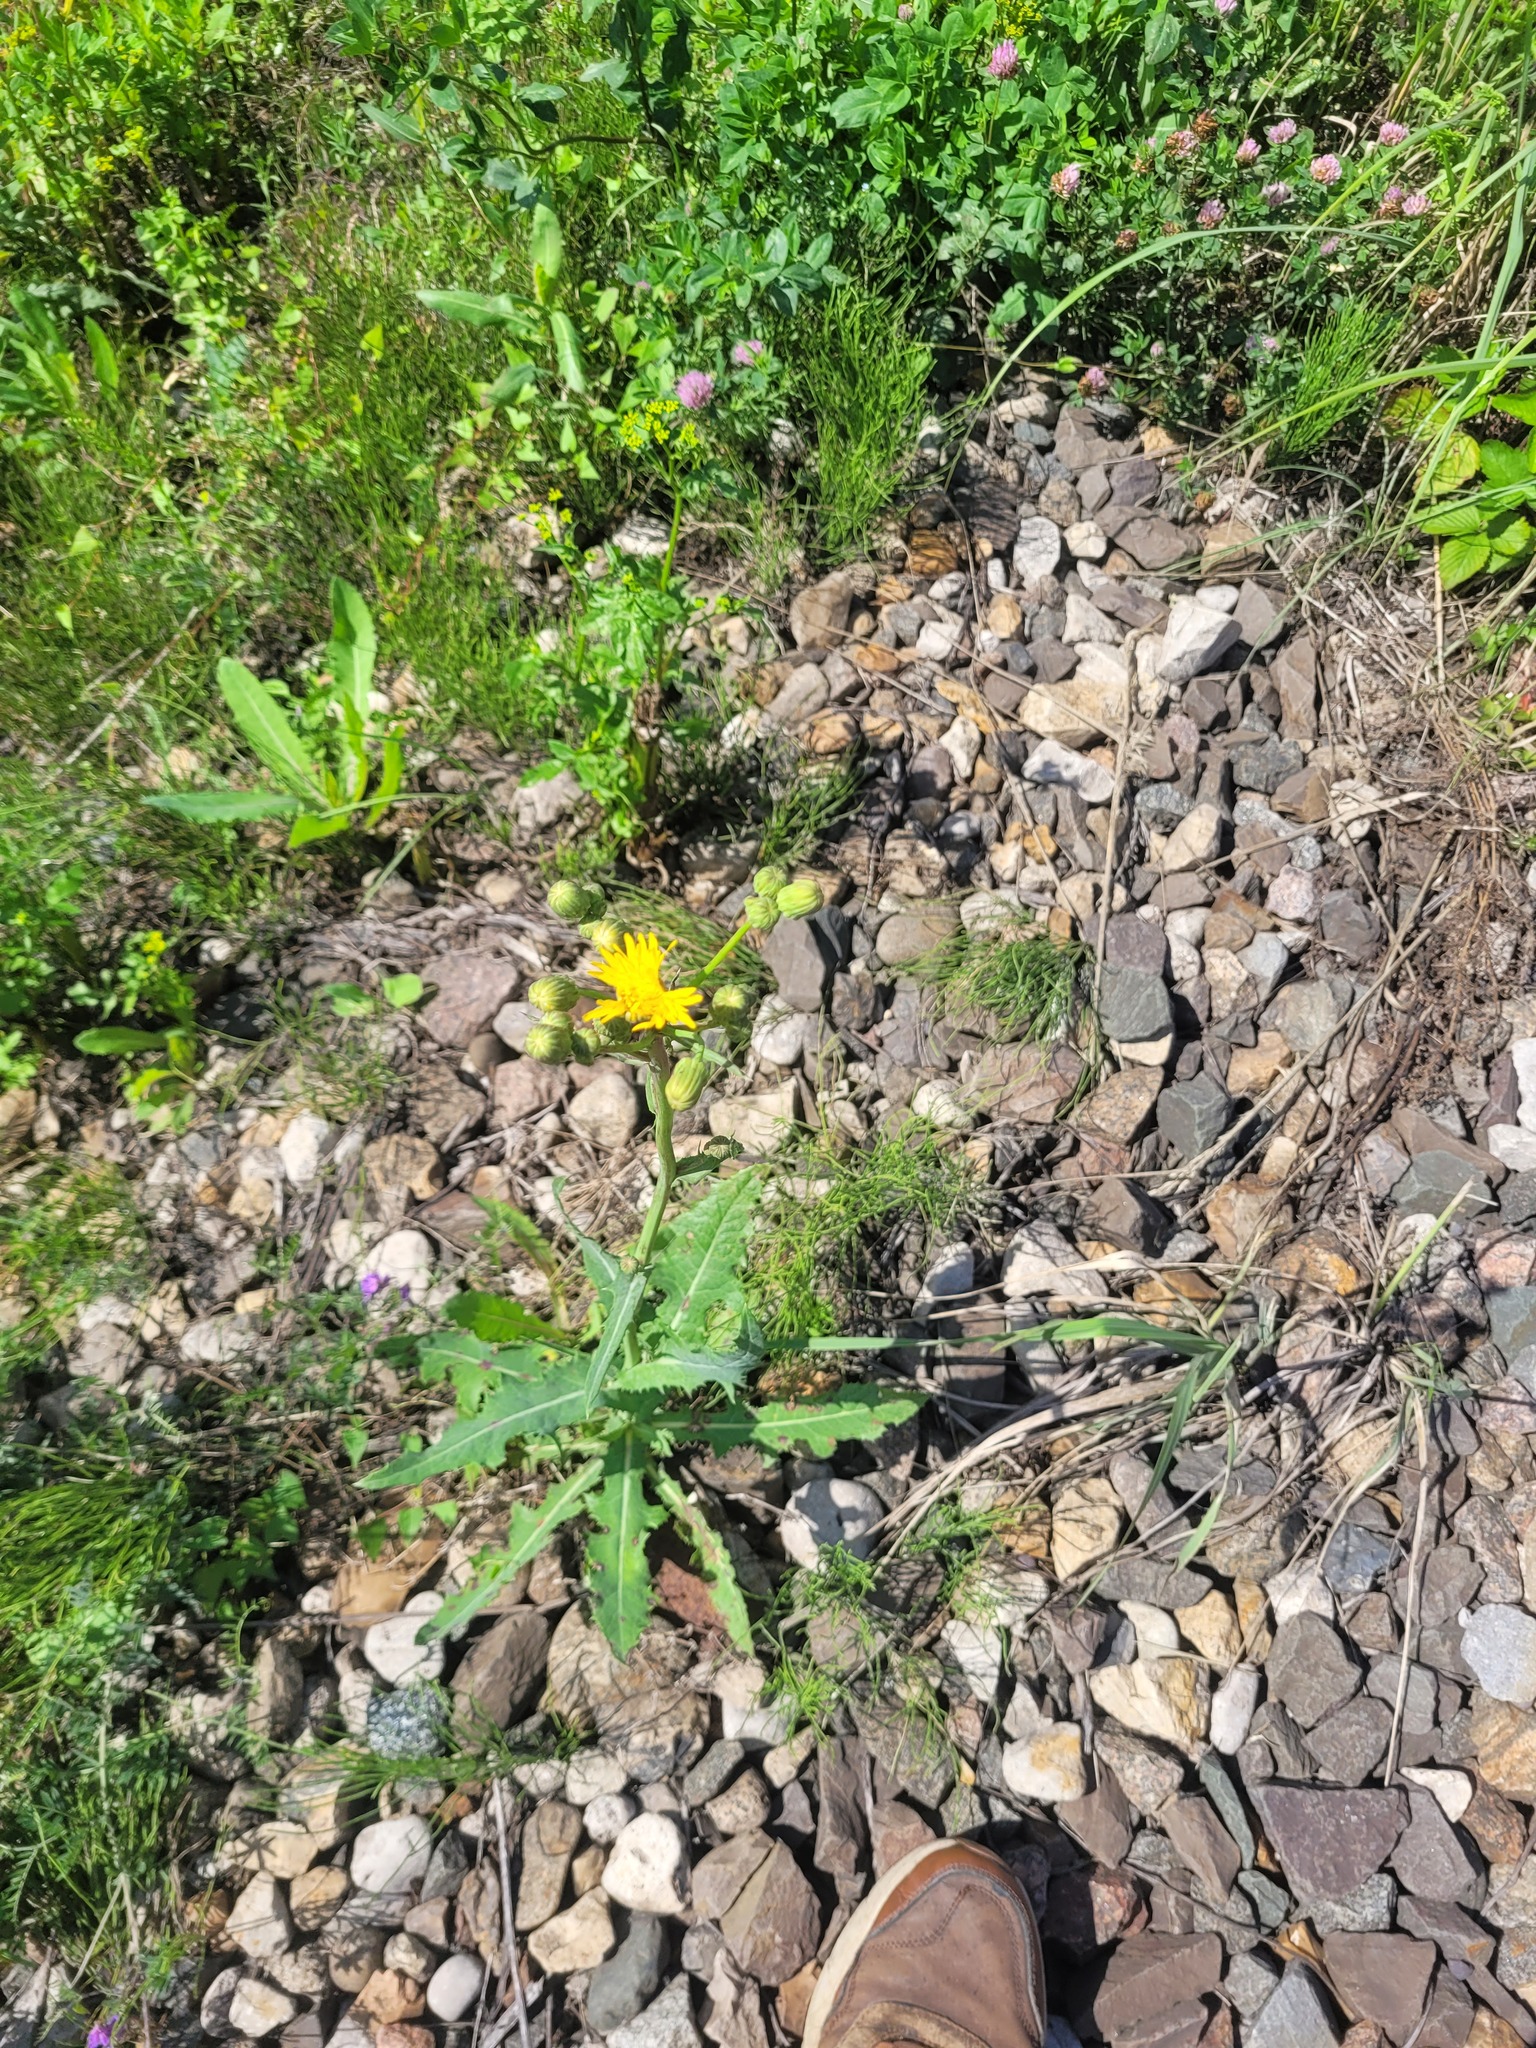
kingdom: Plantae
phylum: Tracheophyta
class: Magnoliopsida
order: Asterales
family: Asteraceae
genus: Sonchus
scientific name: Sonchus arvensis
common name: Perennial sow-thistle
